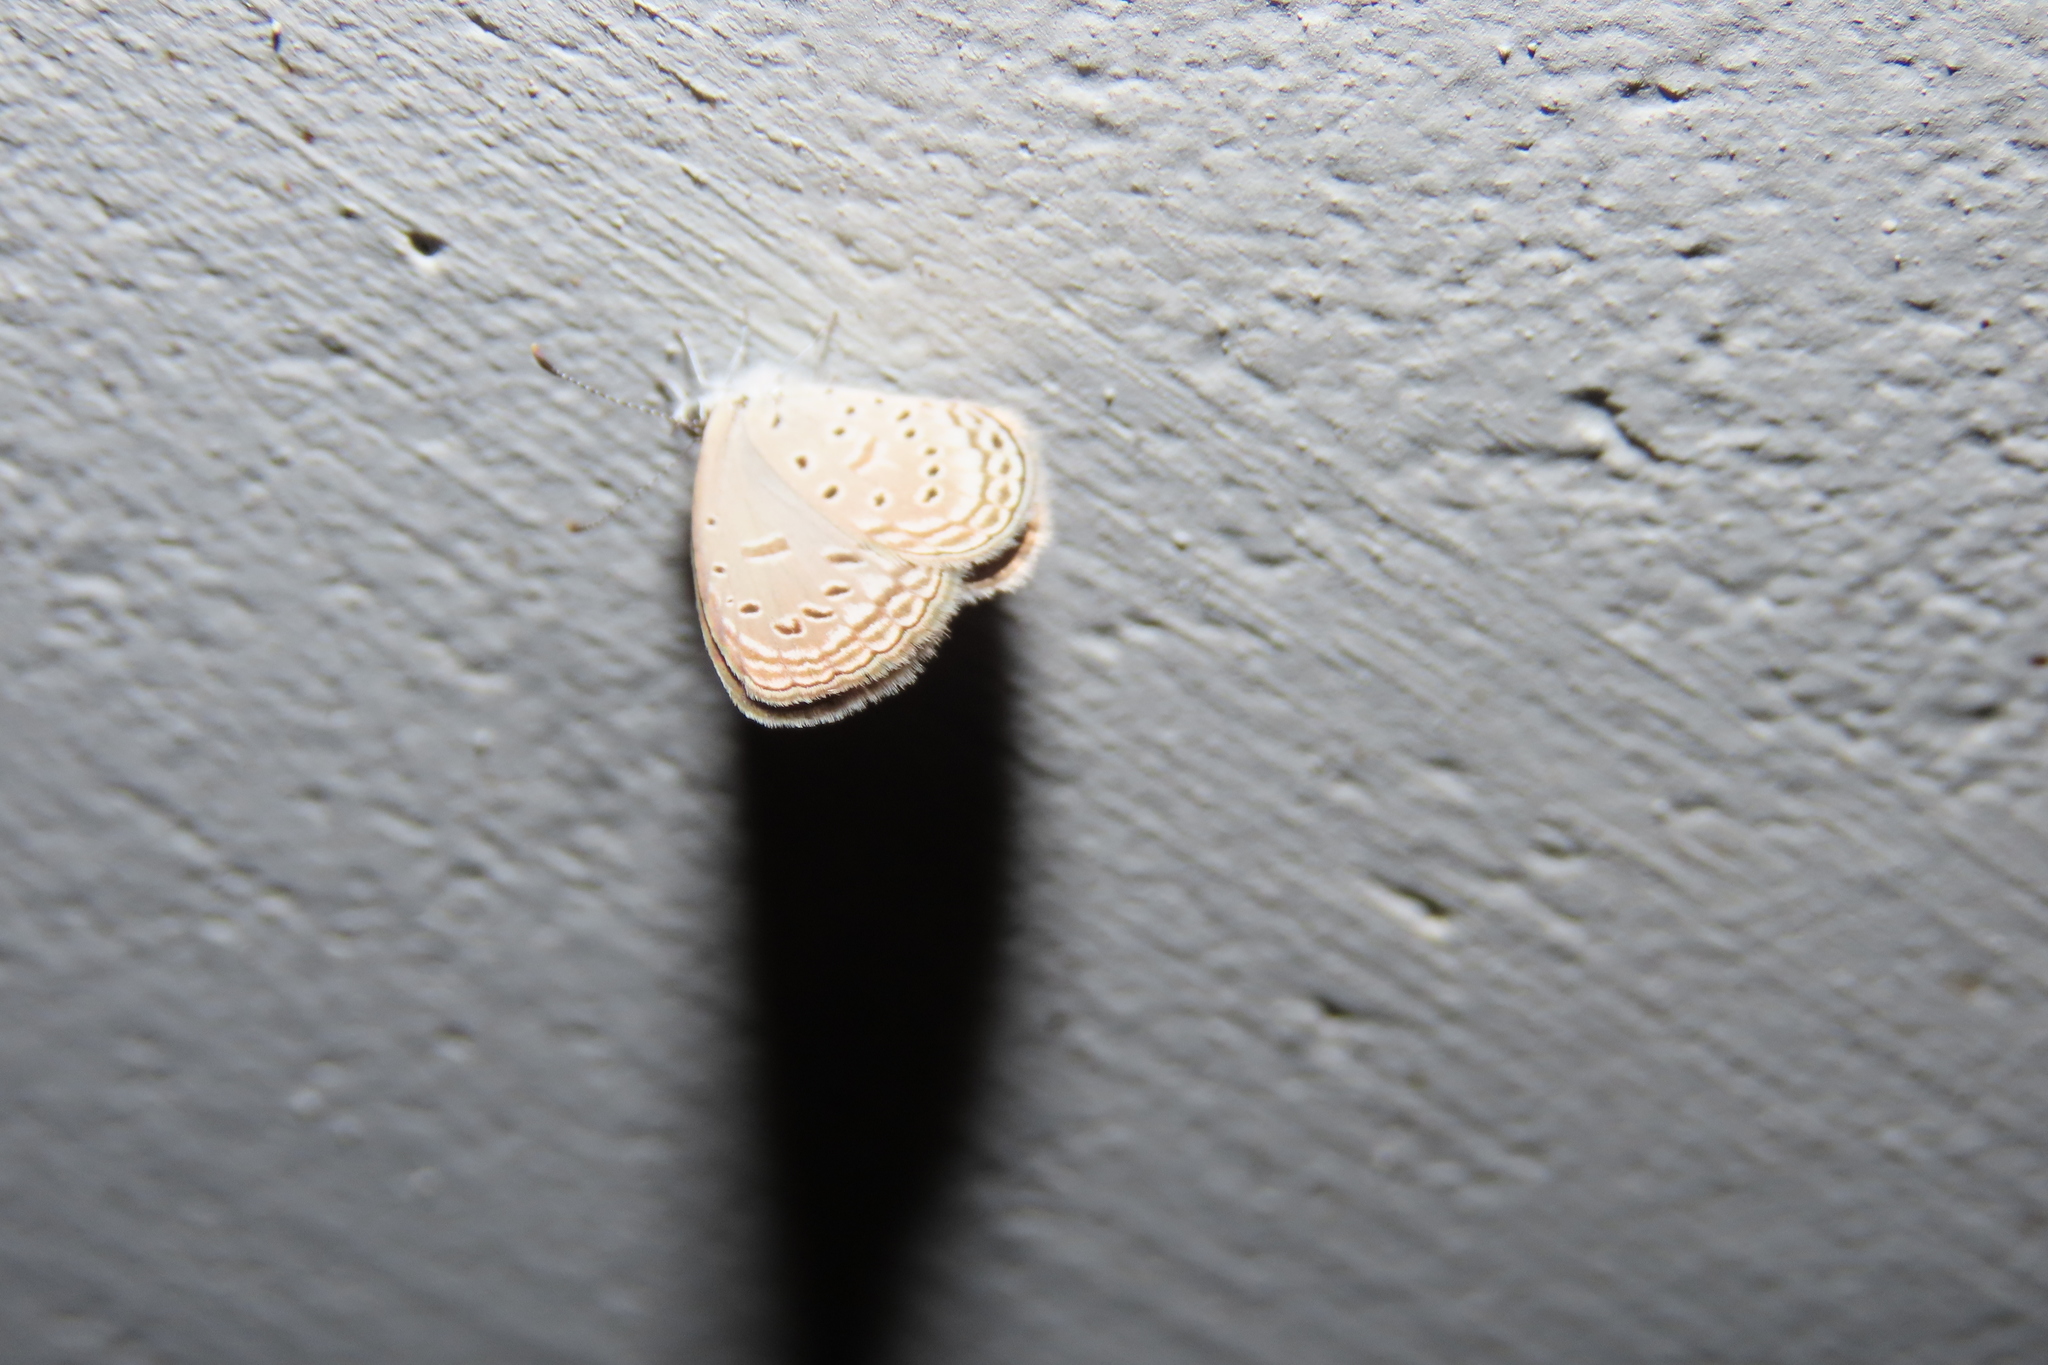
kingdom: Animalia
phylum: Arthropoda
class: Insecta
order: Lepidoptera
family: Lycaenidae
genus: Zizula
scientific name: Zizula hylax
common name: Gaika blue
